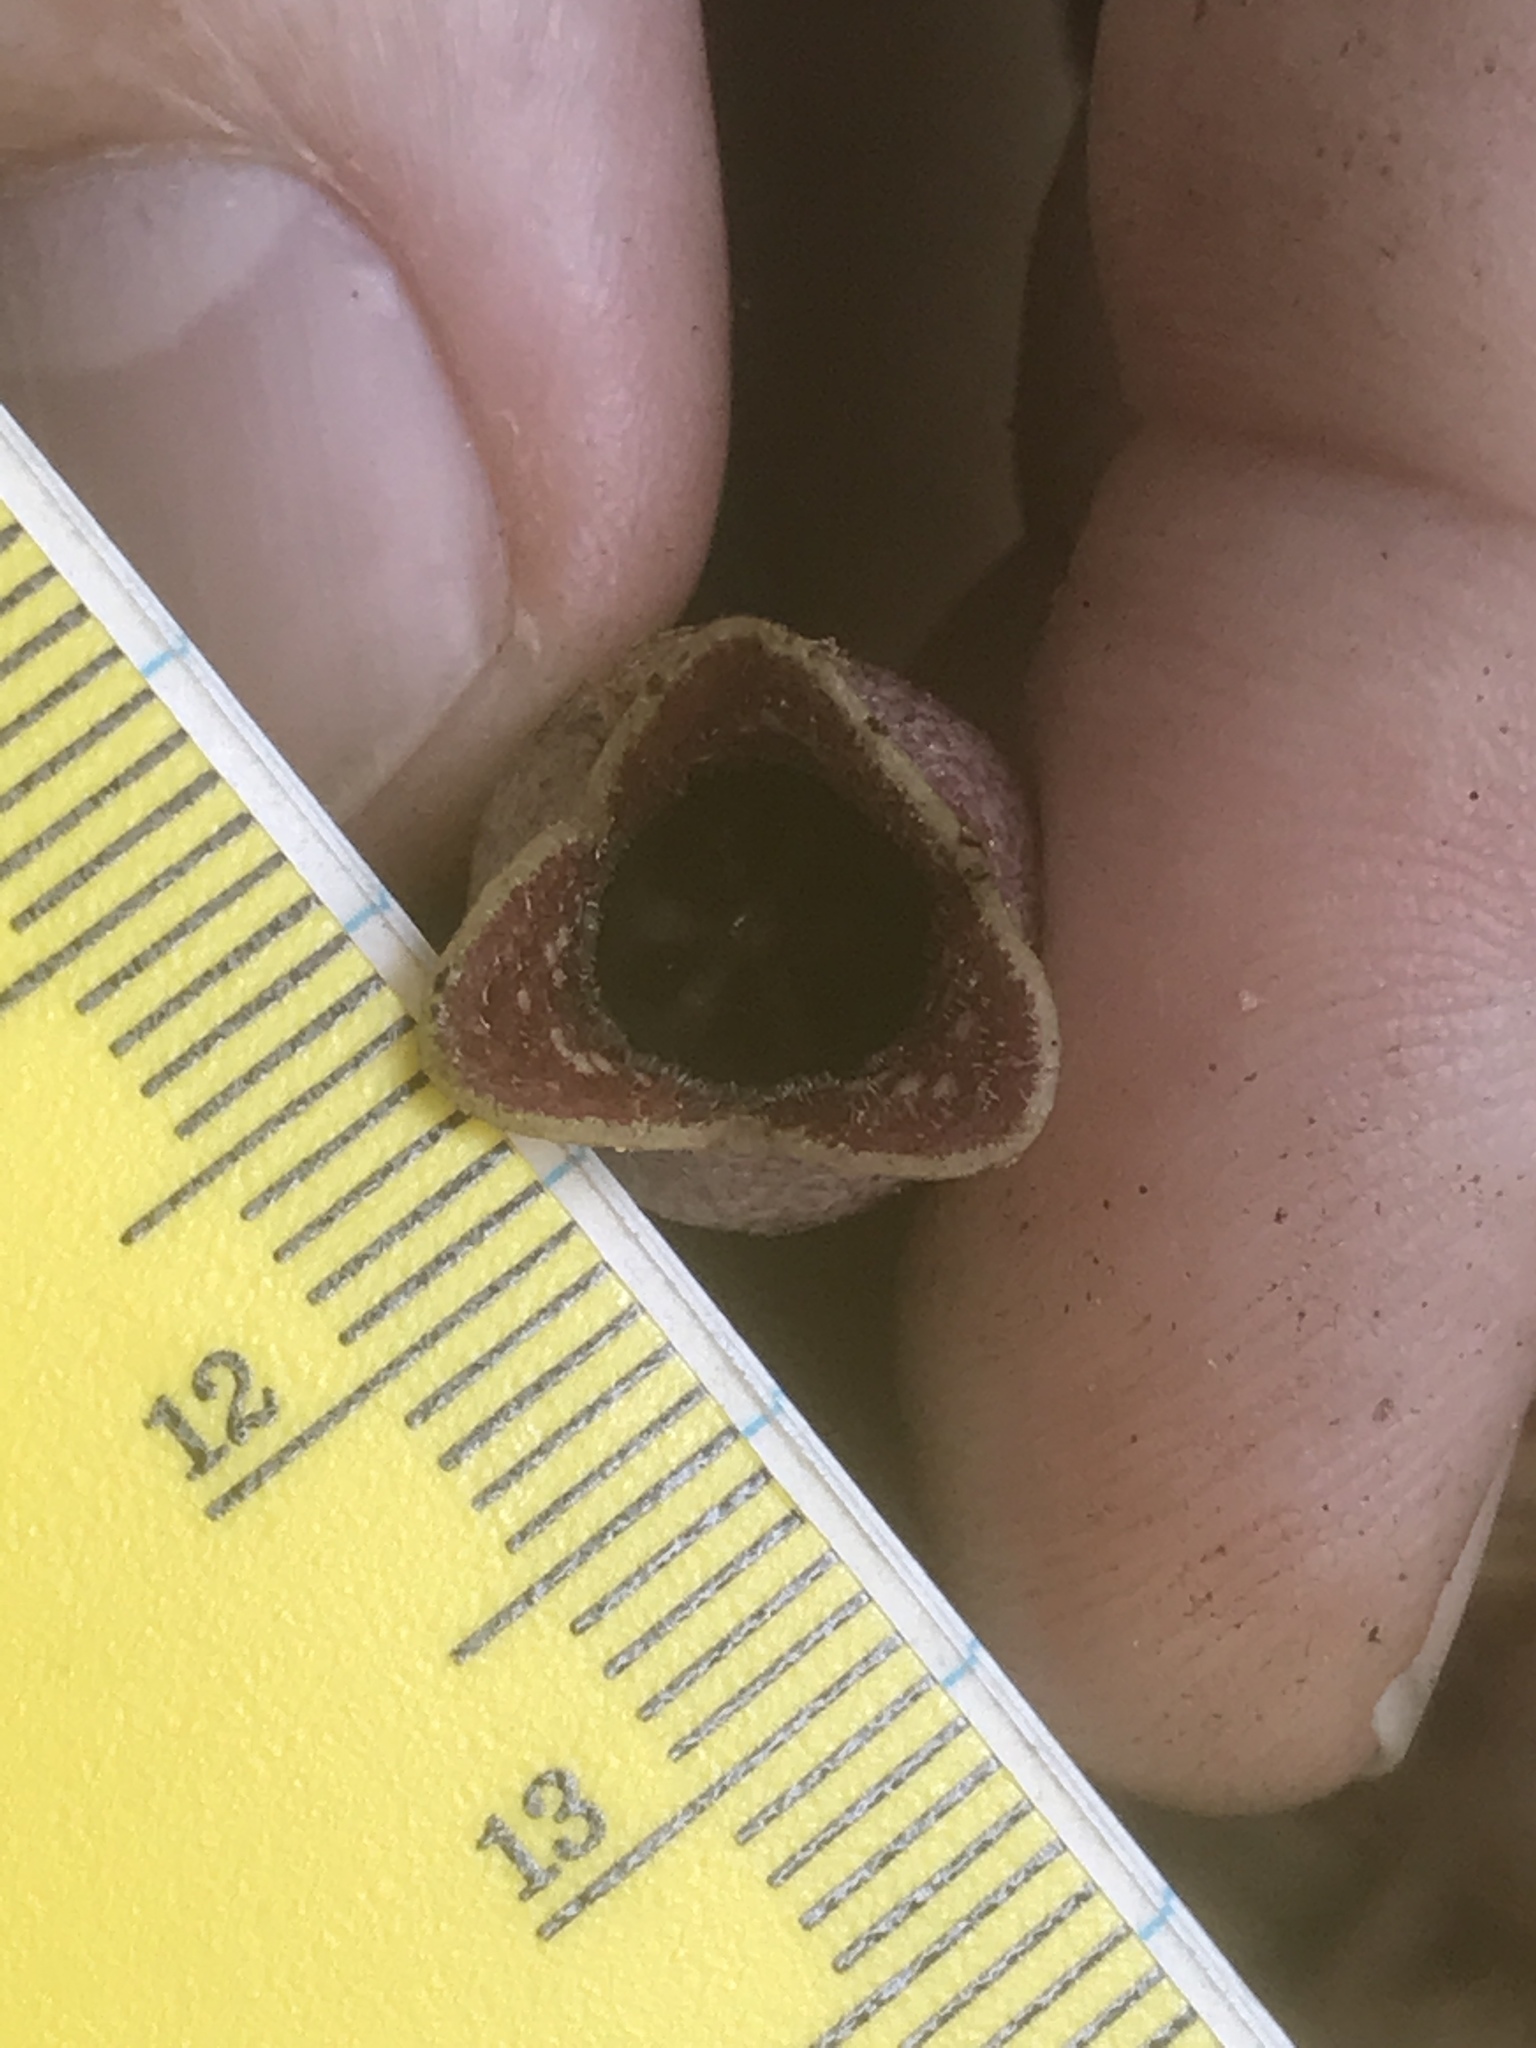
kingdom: Plantae
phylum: Tracheophyta
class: Magnoliopsida
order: Piperales
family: Aristolochiaceae
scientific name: Aristolochiaceae
